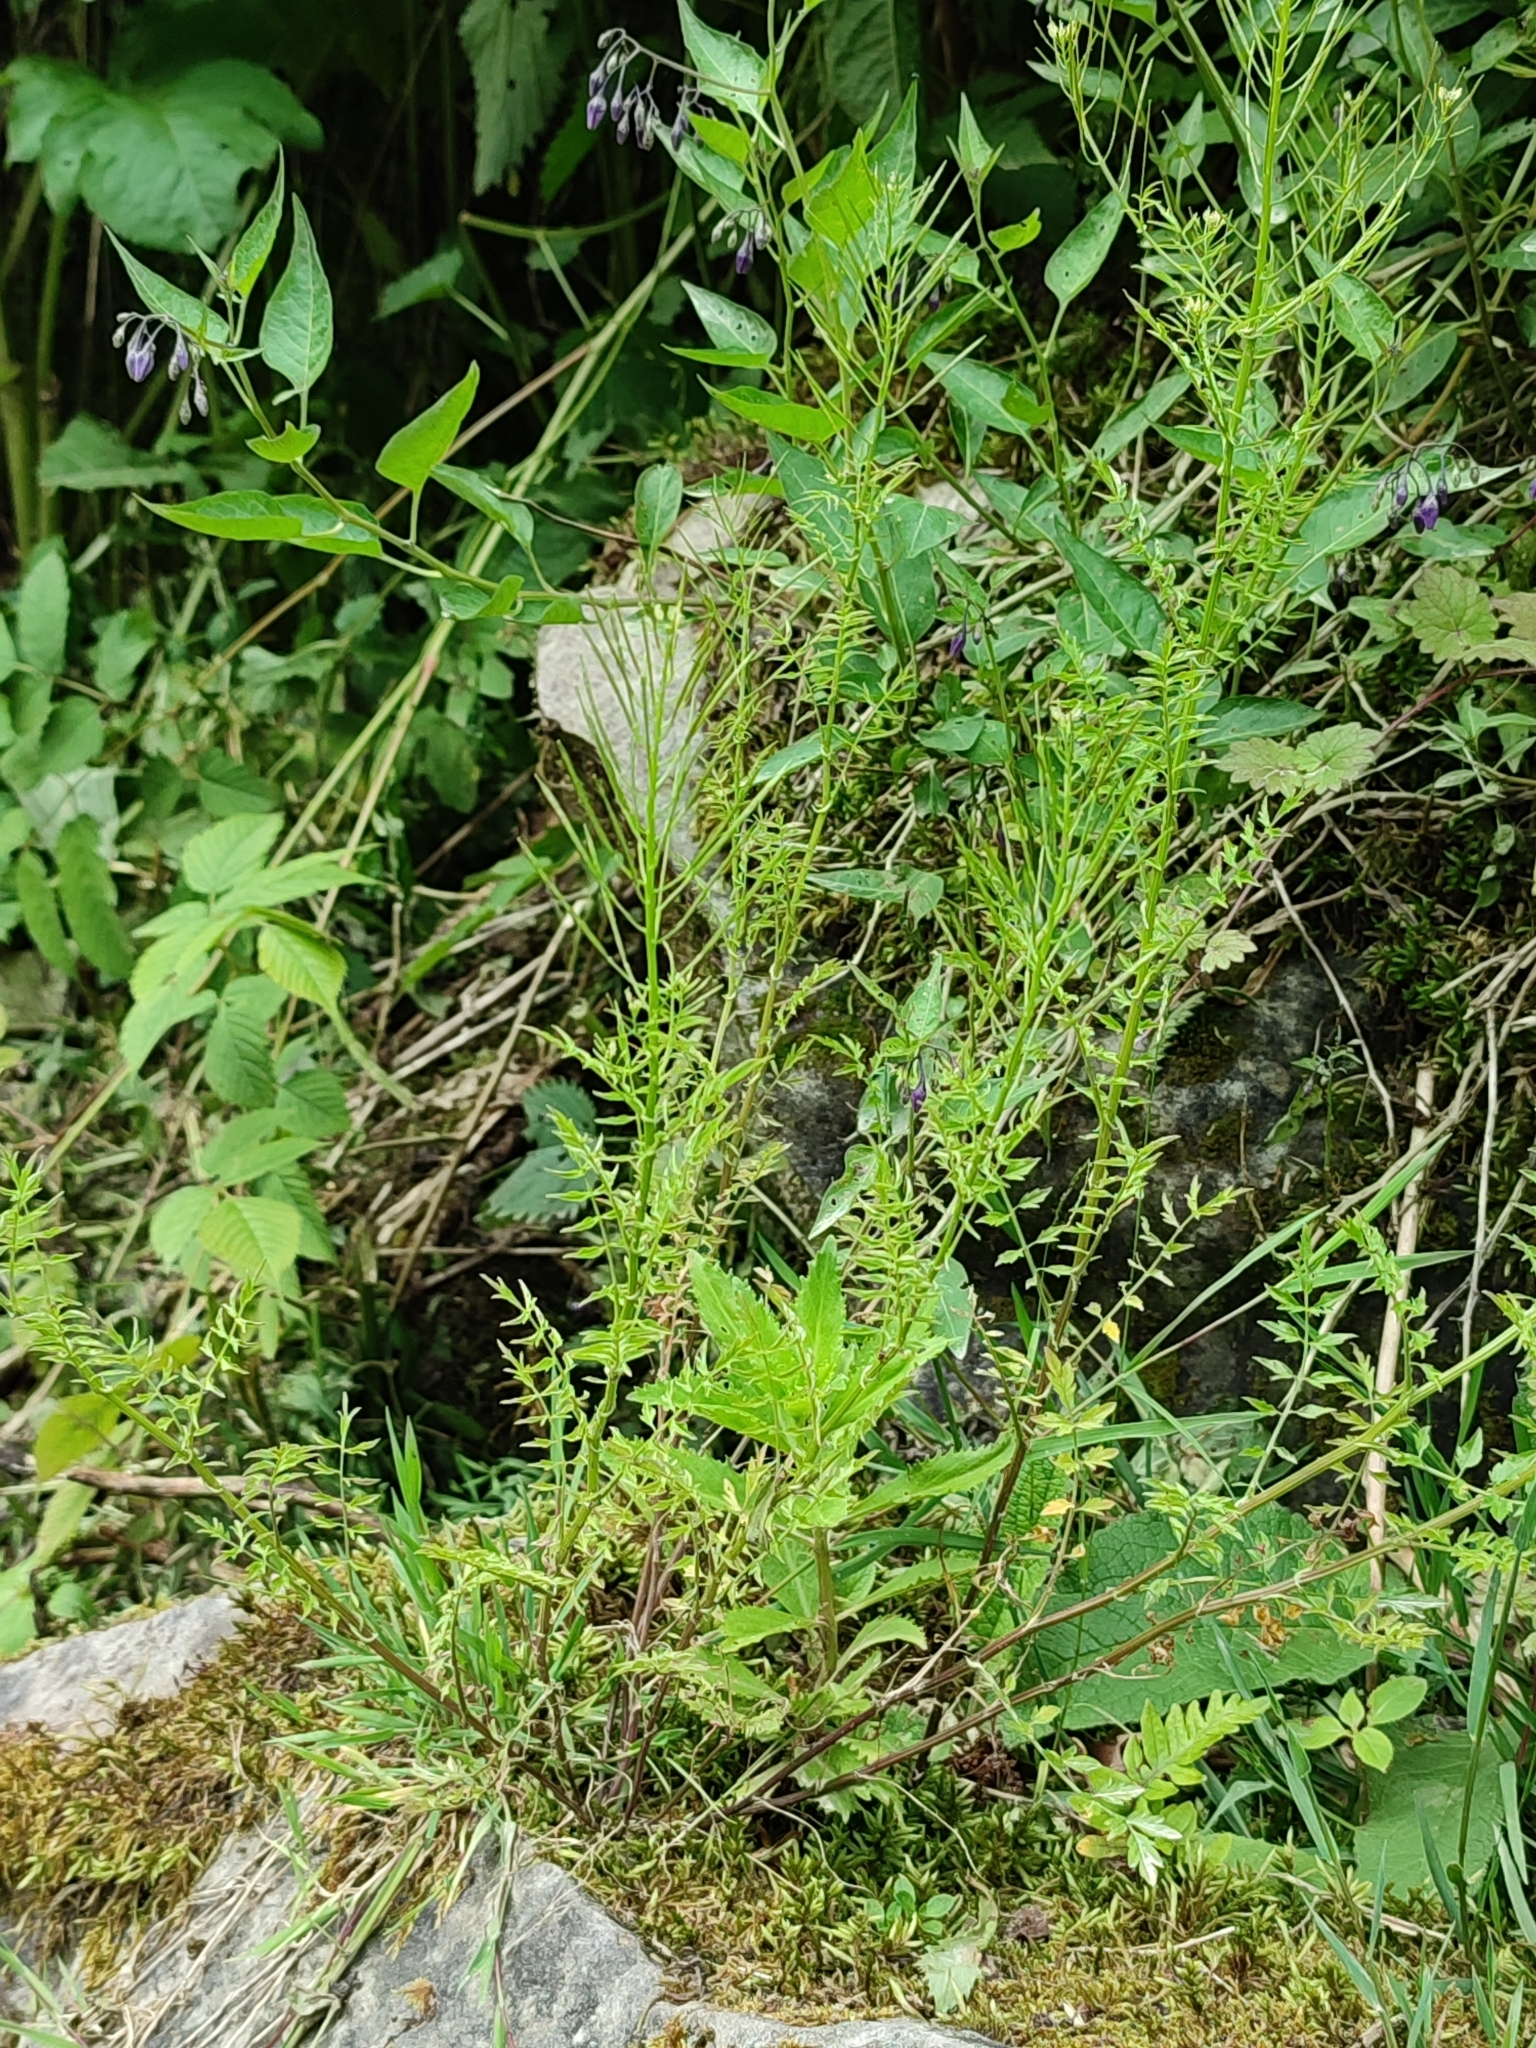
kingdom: Plantae
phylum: Tracheophyta
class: Magnoliopsida
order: Brassicales
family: Brassicaceae
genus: Cardamine
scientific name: Cardamine impatiens
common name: Narrow-leaved bitter-cress
